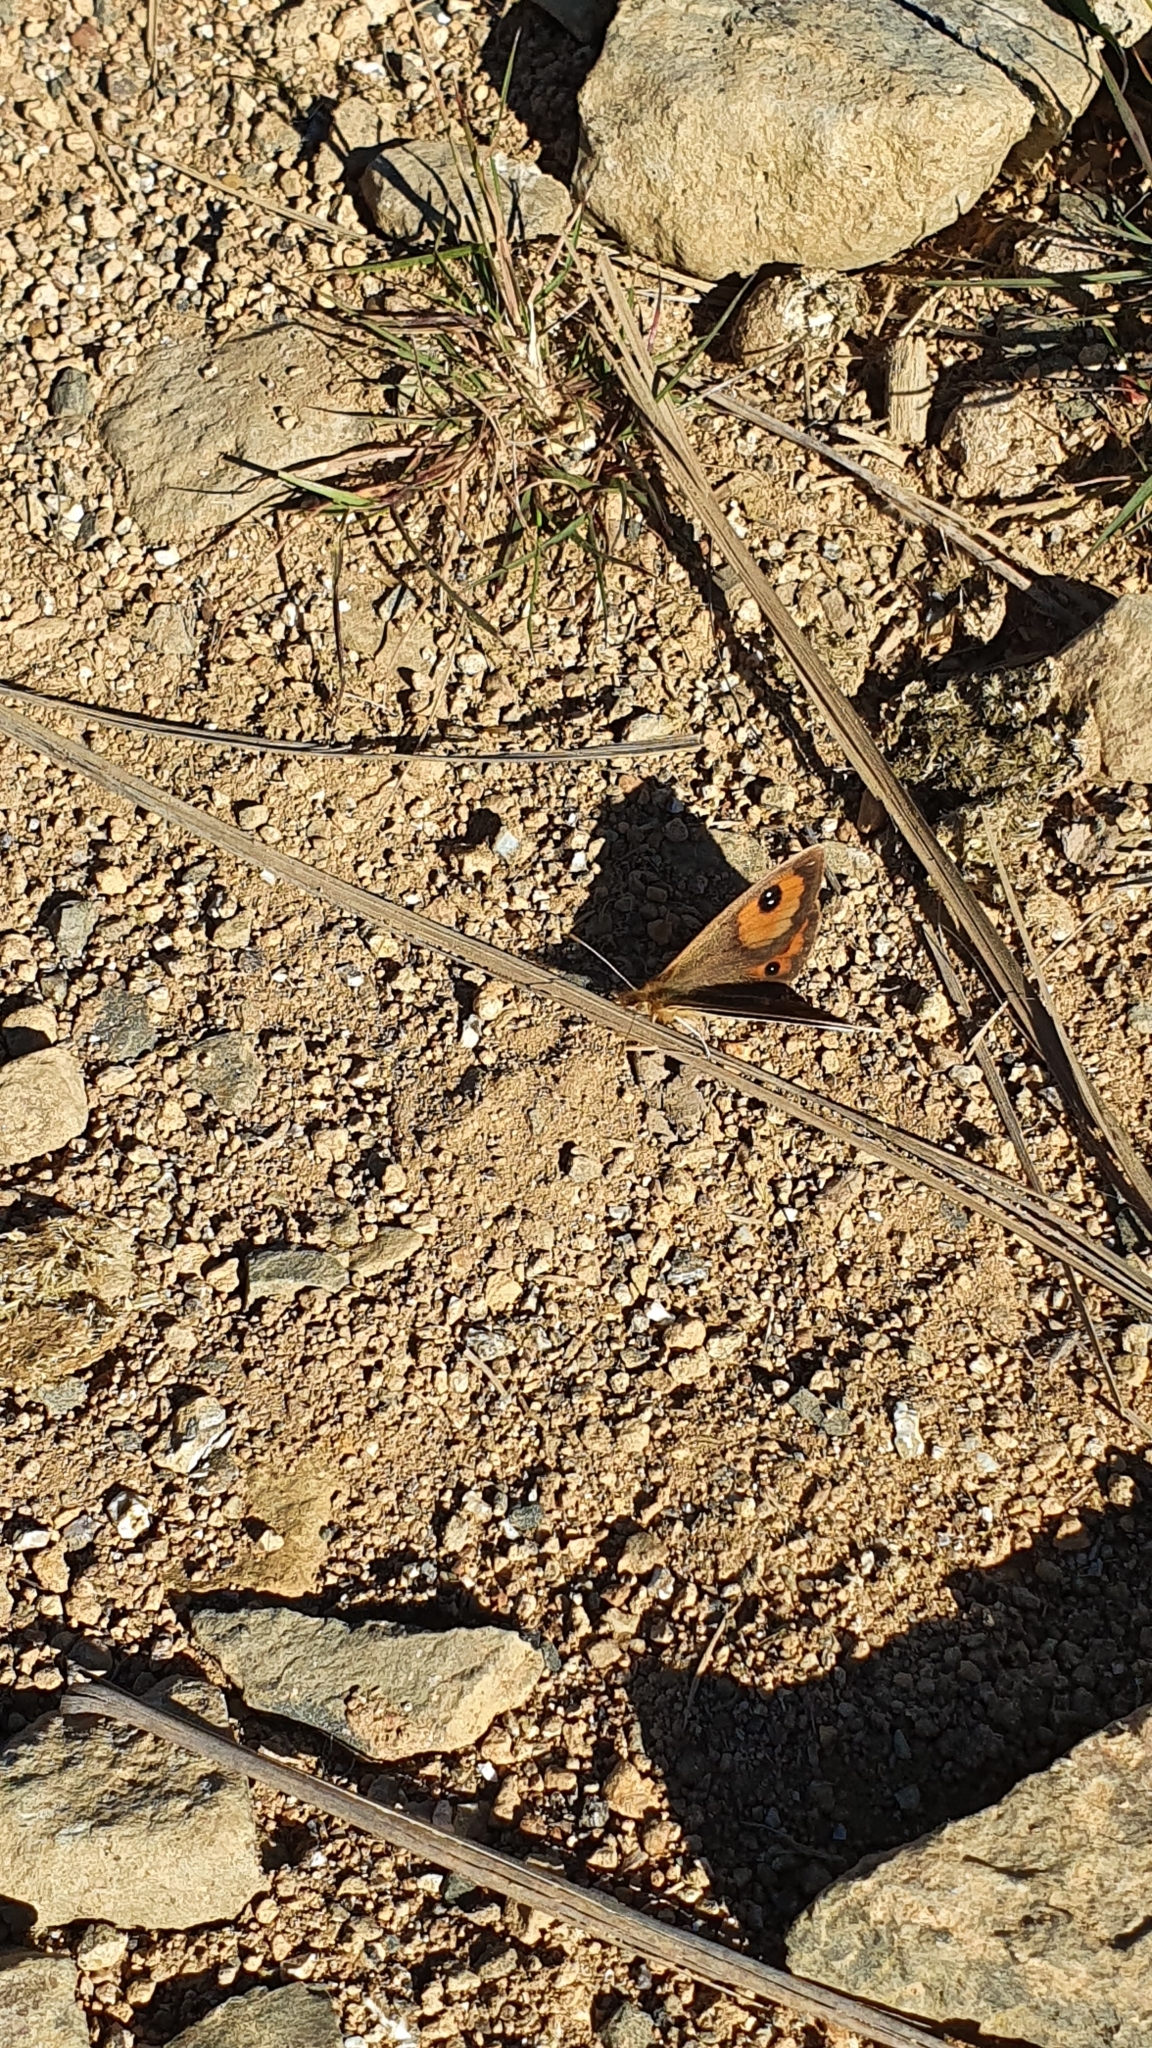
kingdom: Animalia
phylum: Arthropoda
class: Insecta
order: Lepidoptera
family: Nymphalidae
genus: Argyrophenga
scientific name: Argyrophenga janitae
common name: Janita's tussock
